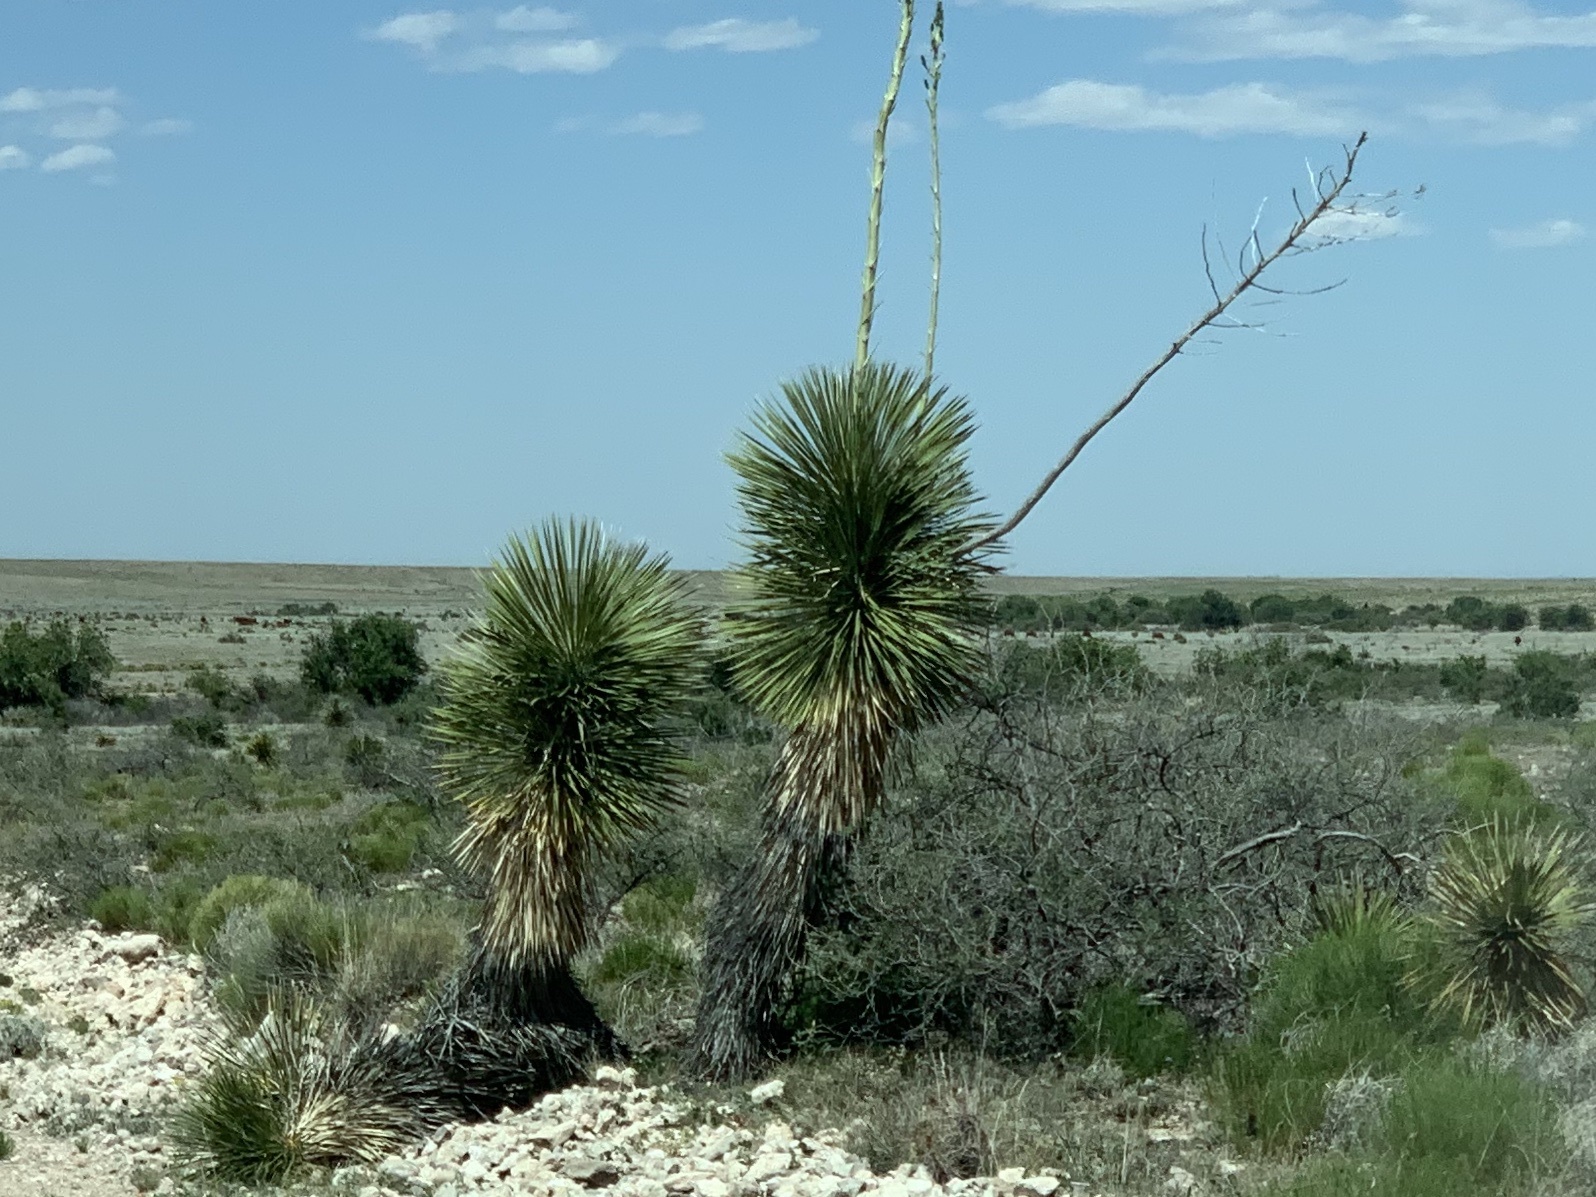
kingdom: Plantae
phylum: Tracheophyta
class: Liliopsida
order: Asparagales
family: Asparagaceae
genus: Yucca
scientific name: Yucca elata
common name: Palmella
